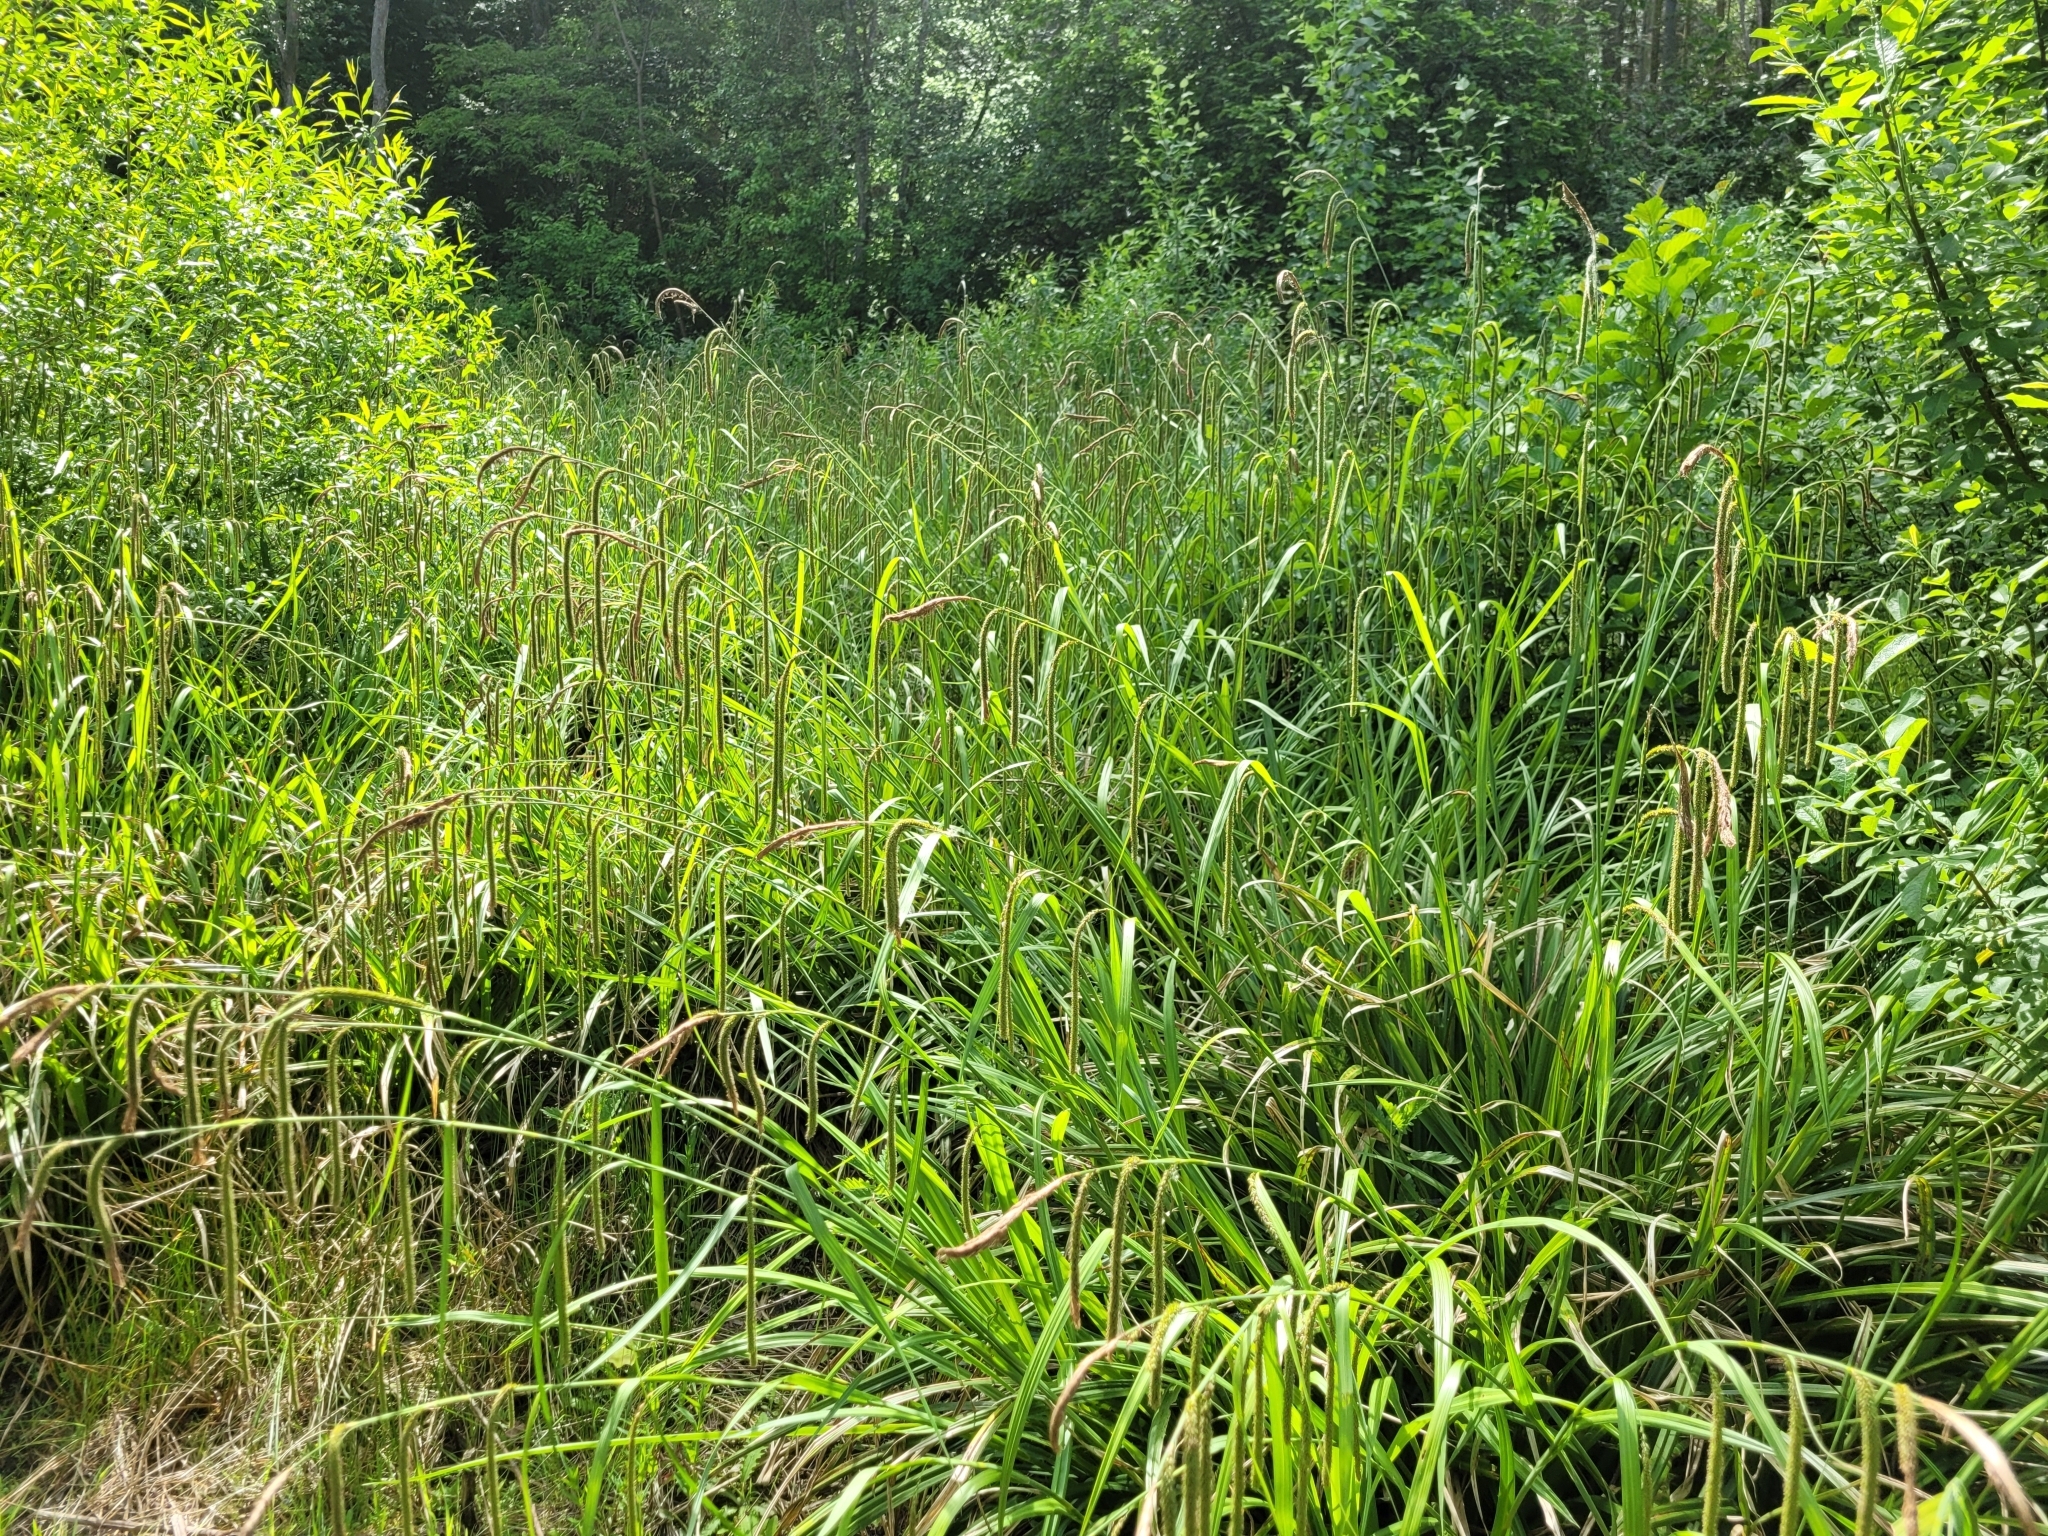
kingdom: Plantae
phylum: Tracheophyta
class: Liliopsida
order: Poales
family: Cyperaceae
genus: Carex
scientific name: Carex pendula
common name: Pendulous sedge
